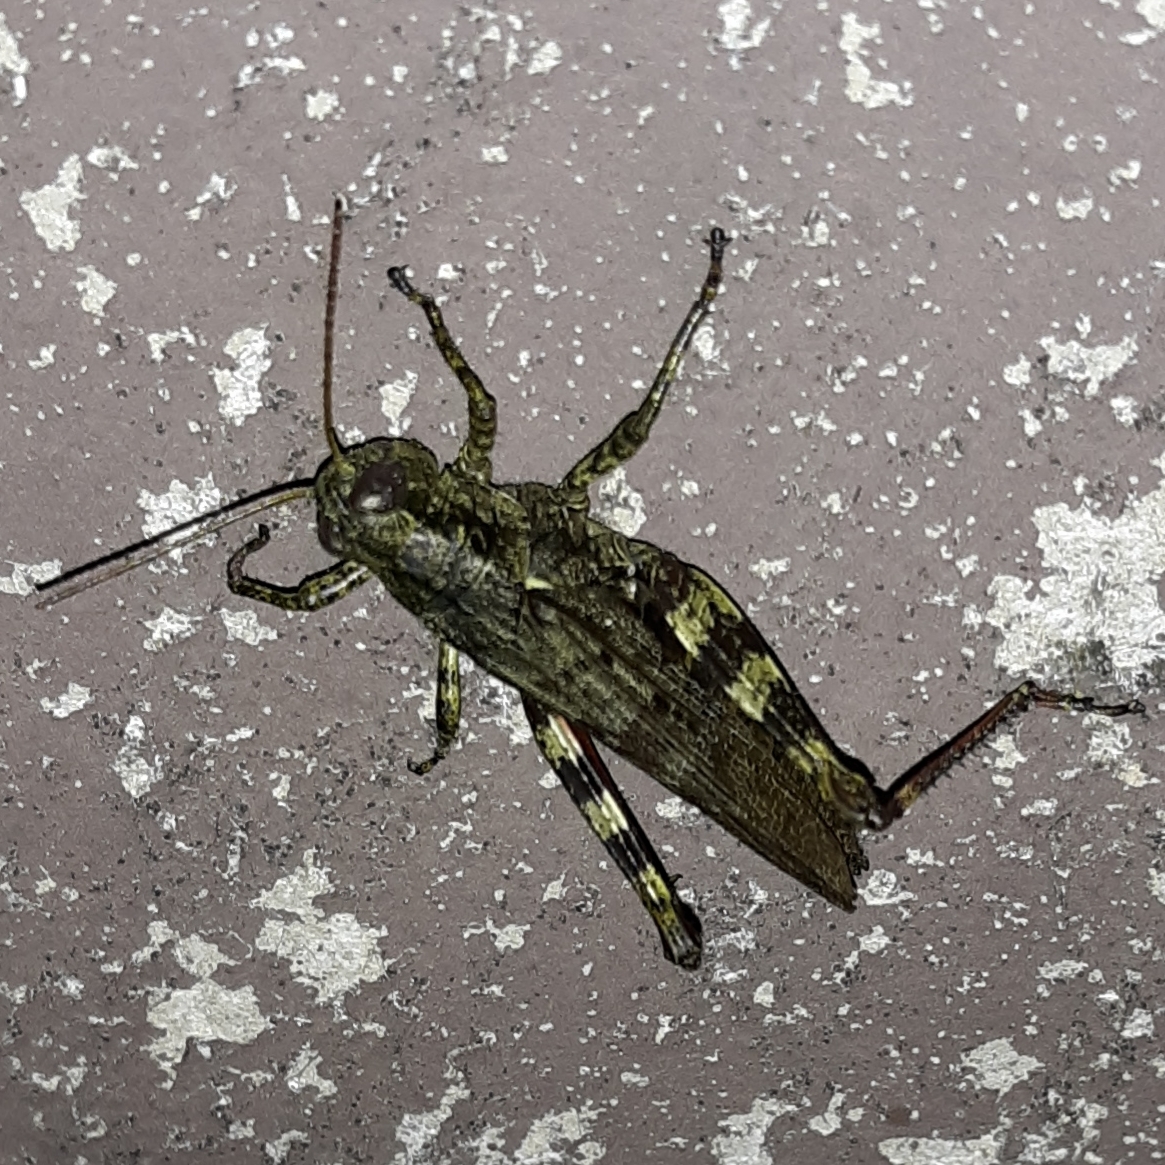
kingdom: Animalia
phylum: Arthropoda
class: Insecta
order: Orthoptera
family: Acrididae
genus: Melanoplus
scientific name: Melanoplus punctulatus
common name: Pine-tree spur-throat grasshopper
